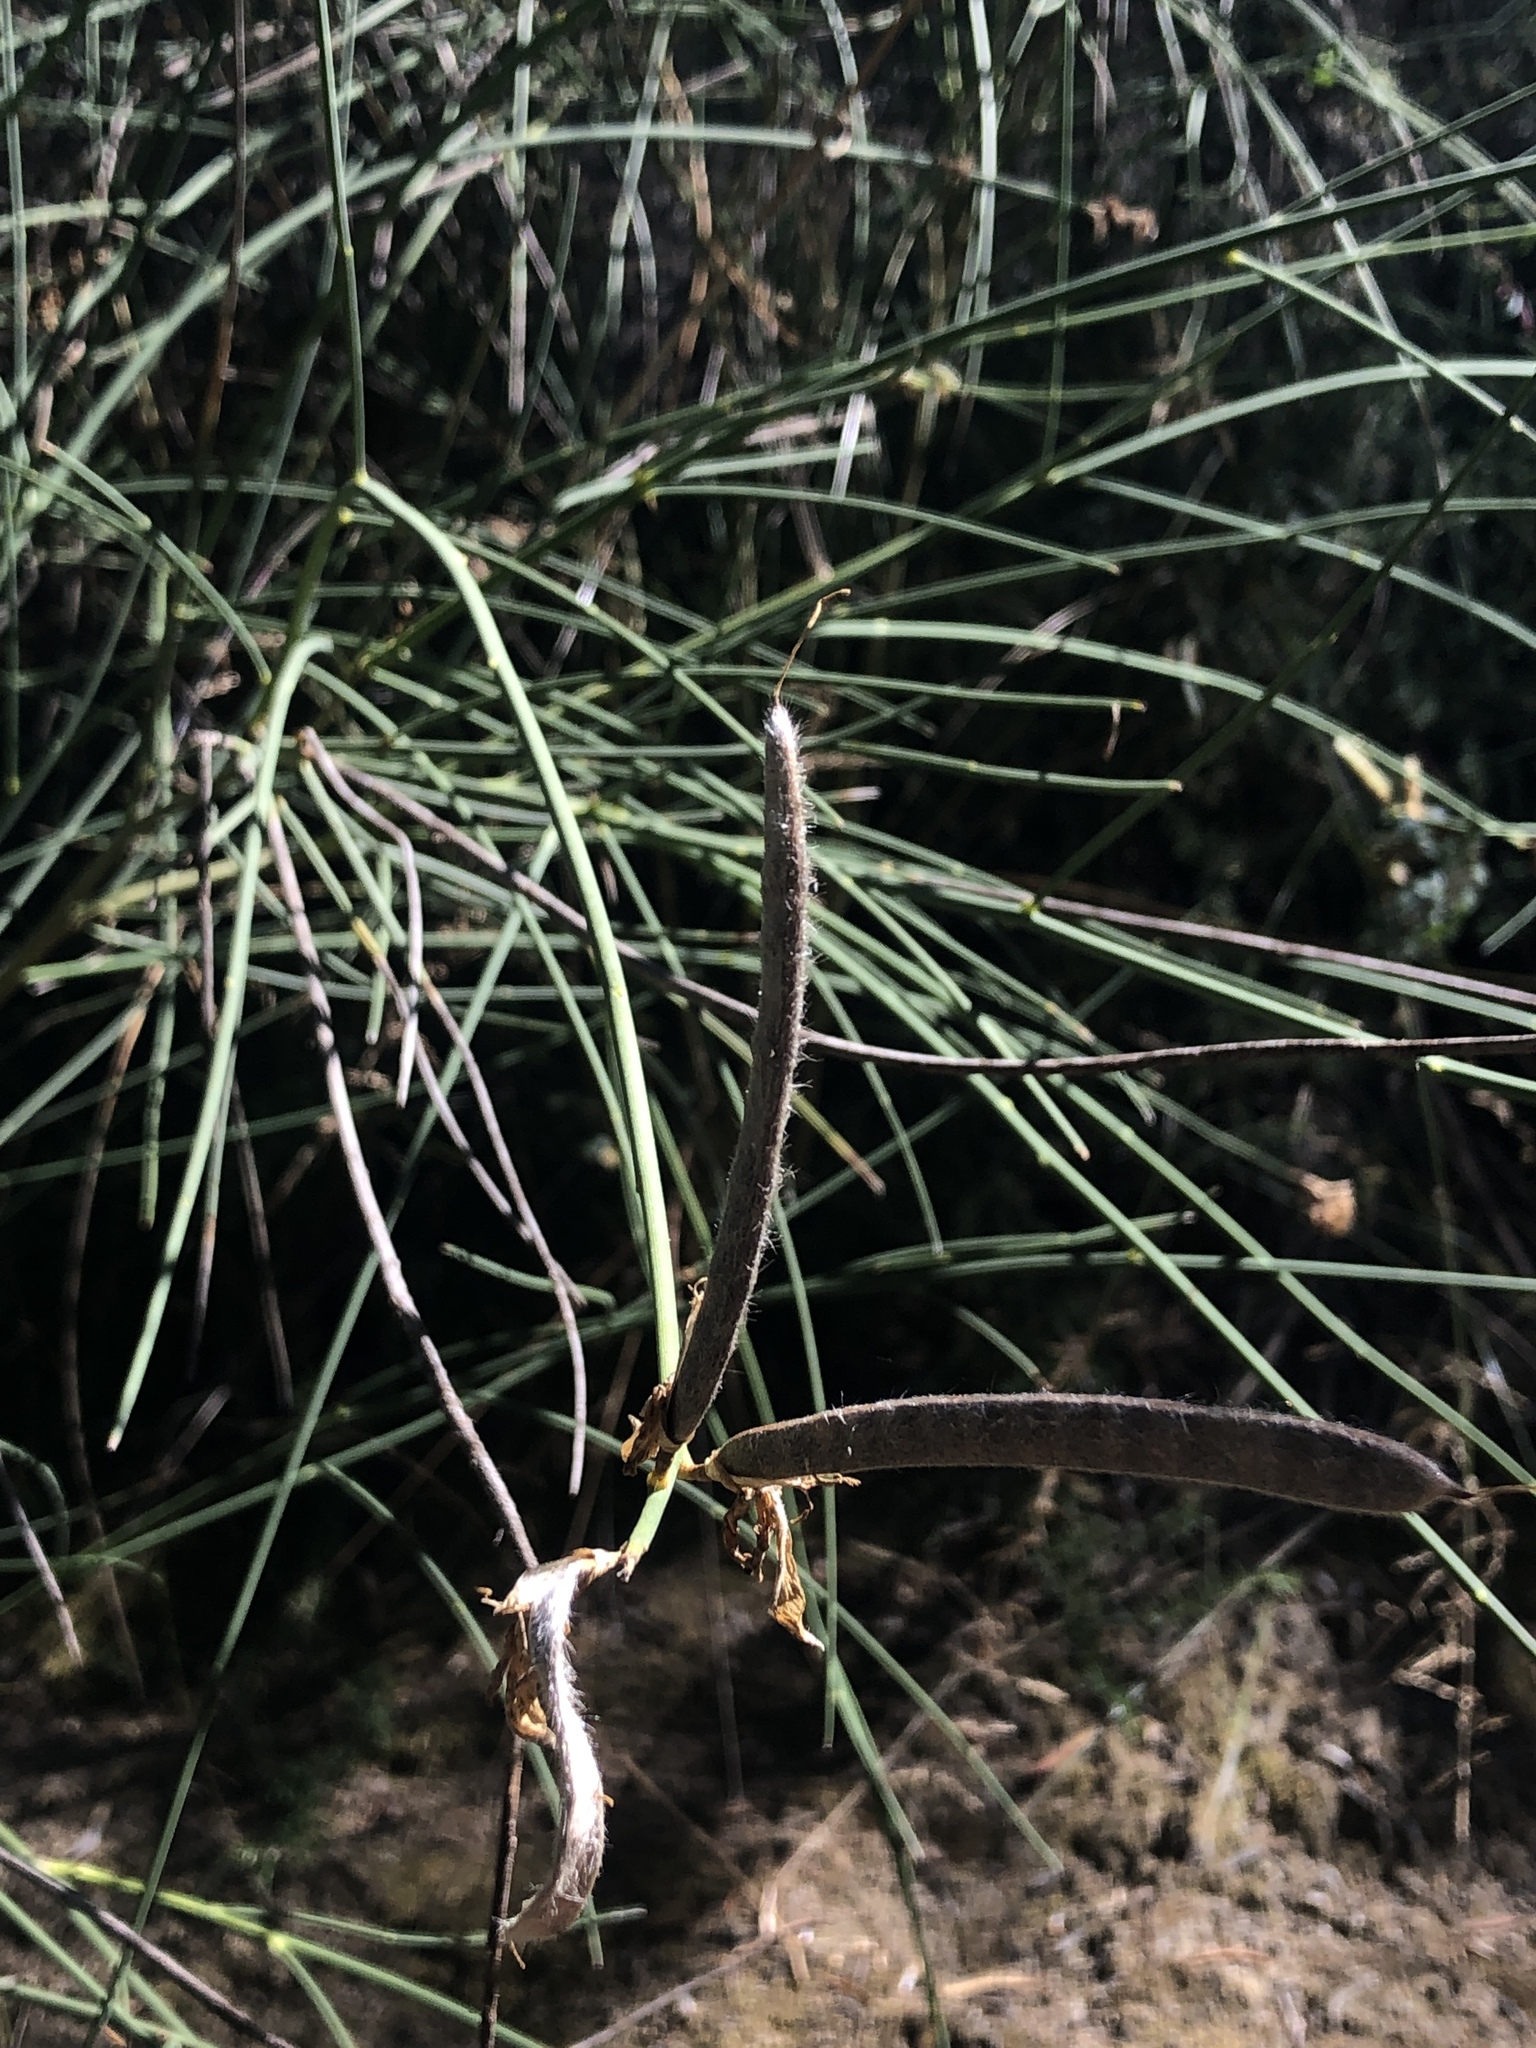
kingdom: Plantae
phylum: Tracheophyta
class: Magnoliopsida
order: Fabales
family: Fabaceae
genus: Spartium
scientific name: Spartium junceum
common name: Spanish broom
